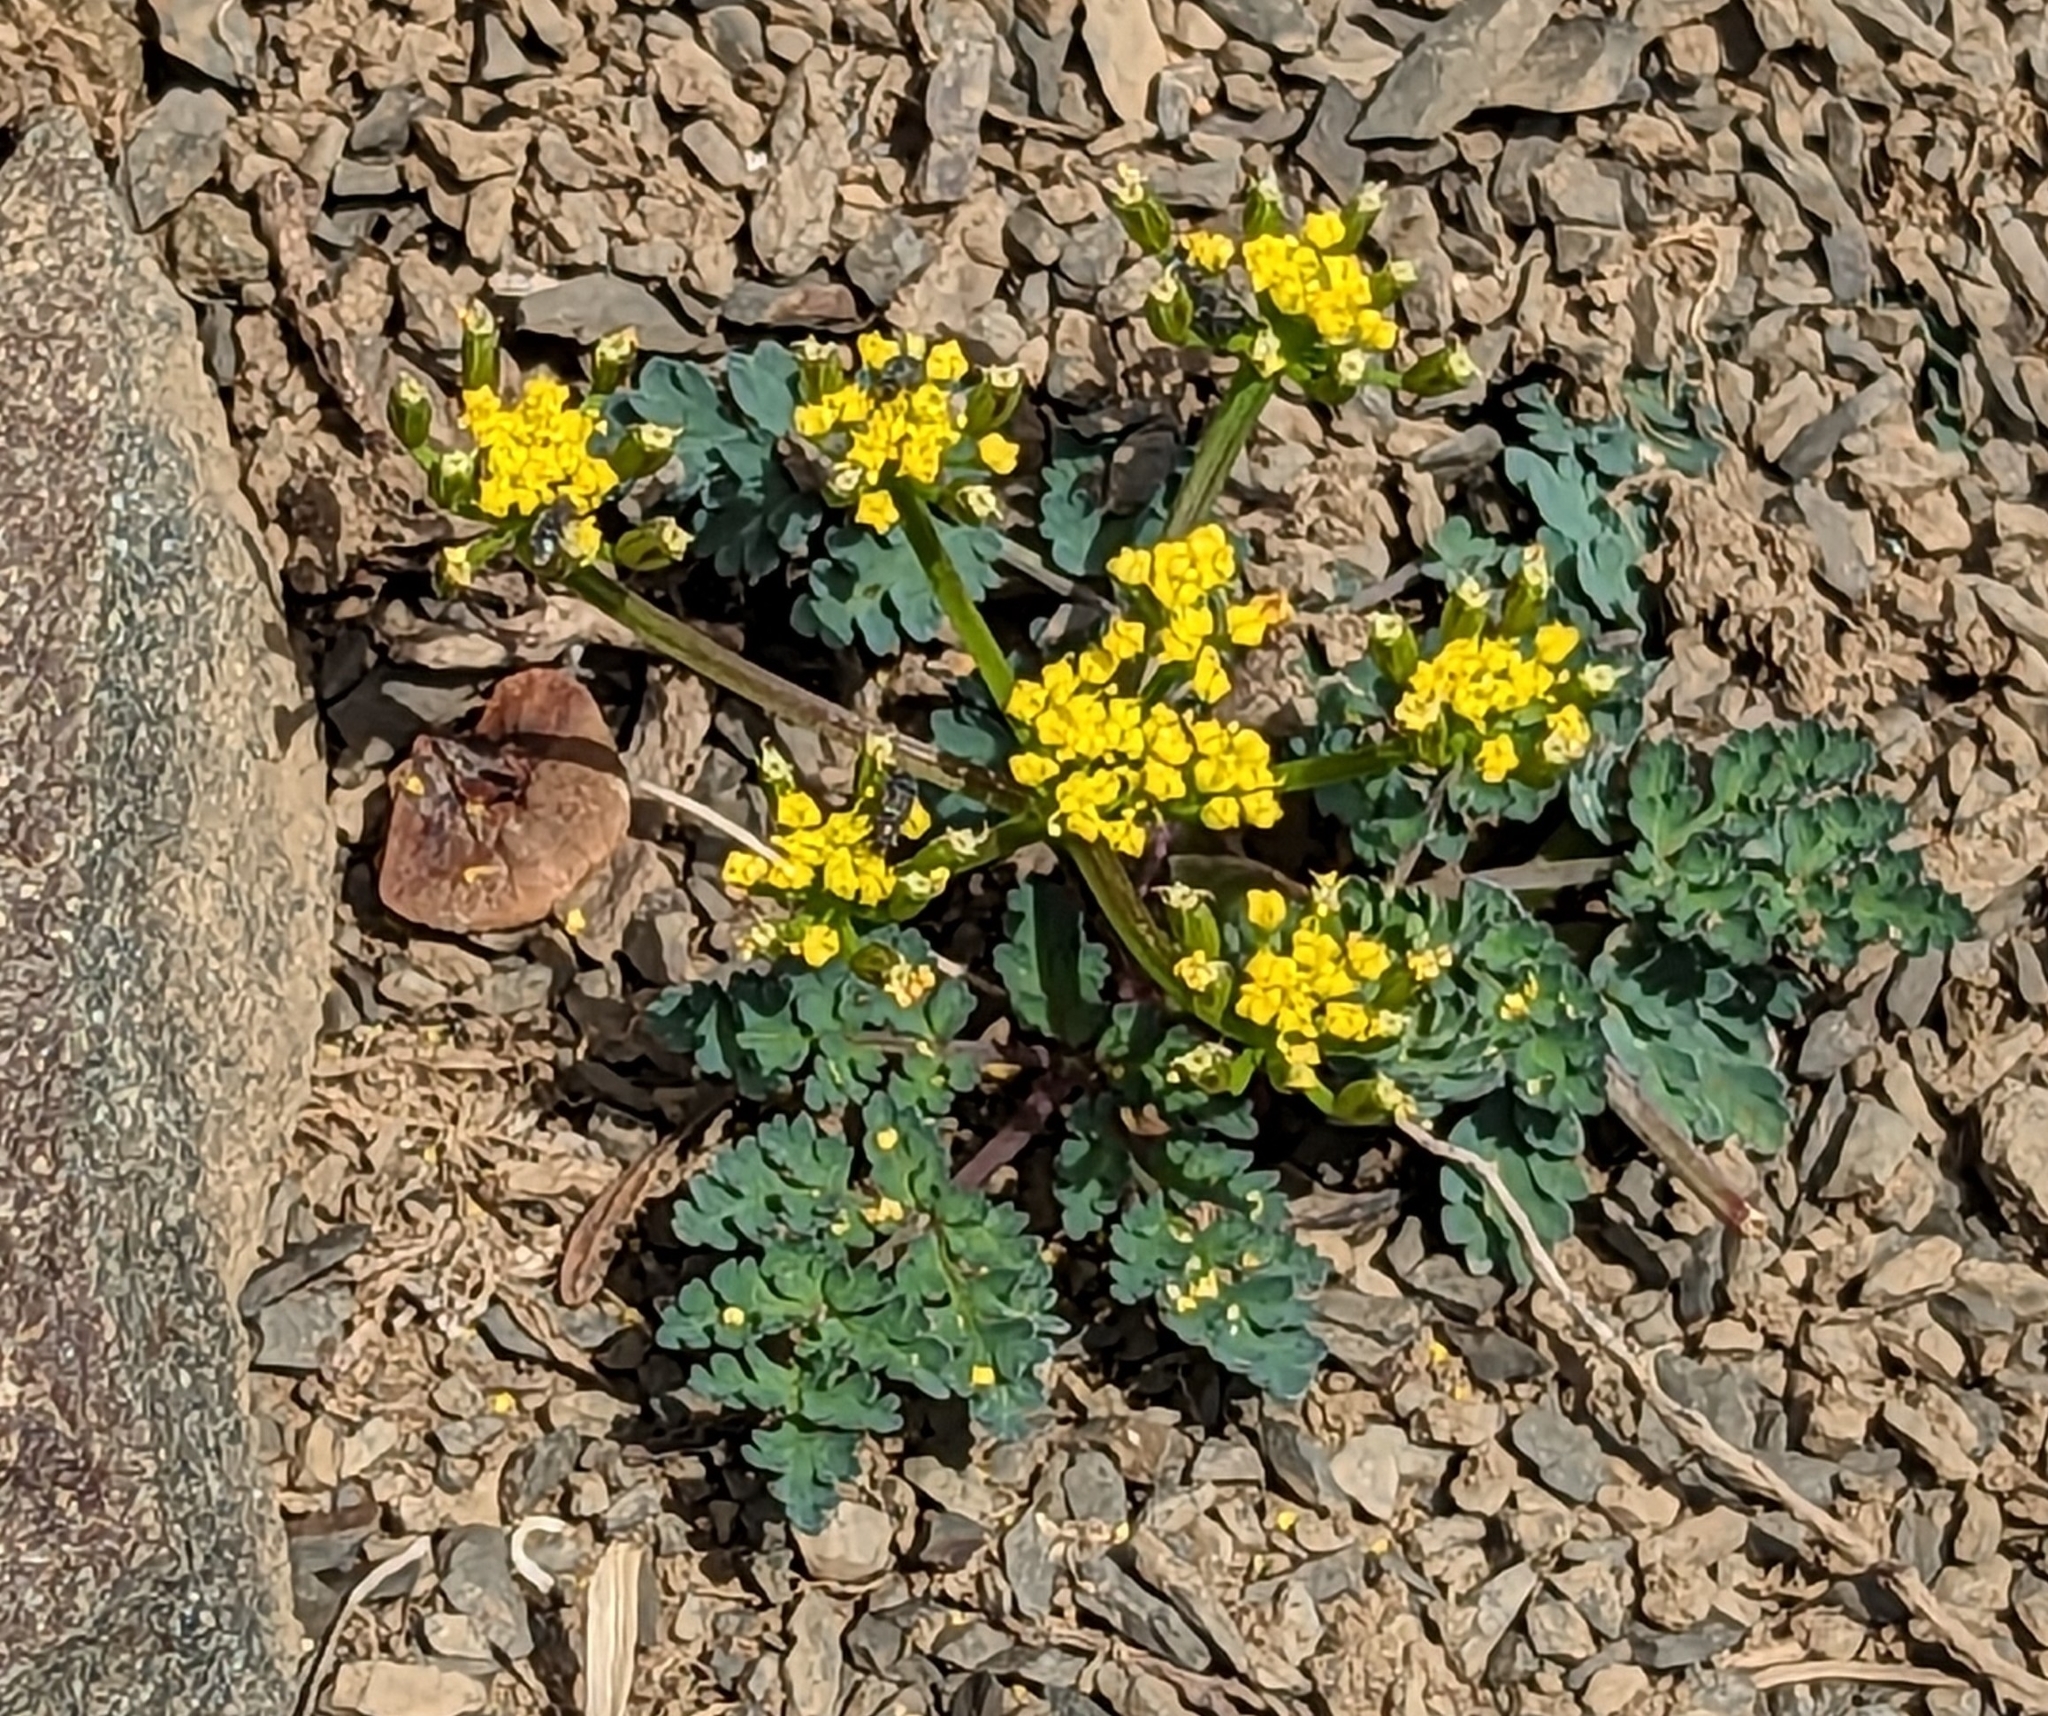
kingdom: Plantae
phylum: Tracheophyta
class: Magnoliopsida
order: Apiales
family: Apiaceae
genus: Lomatium
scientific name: Lomatium martindalei
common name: Cascade desert-parsley
